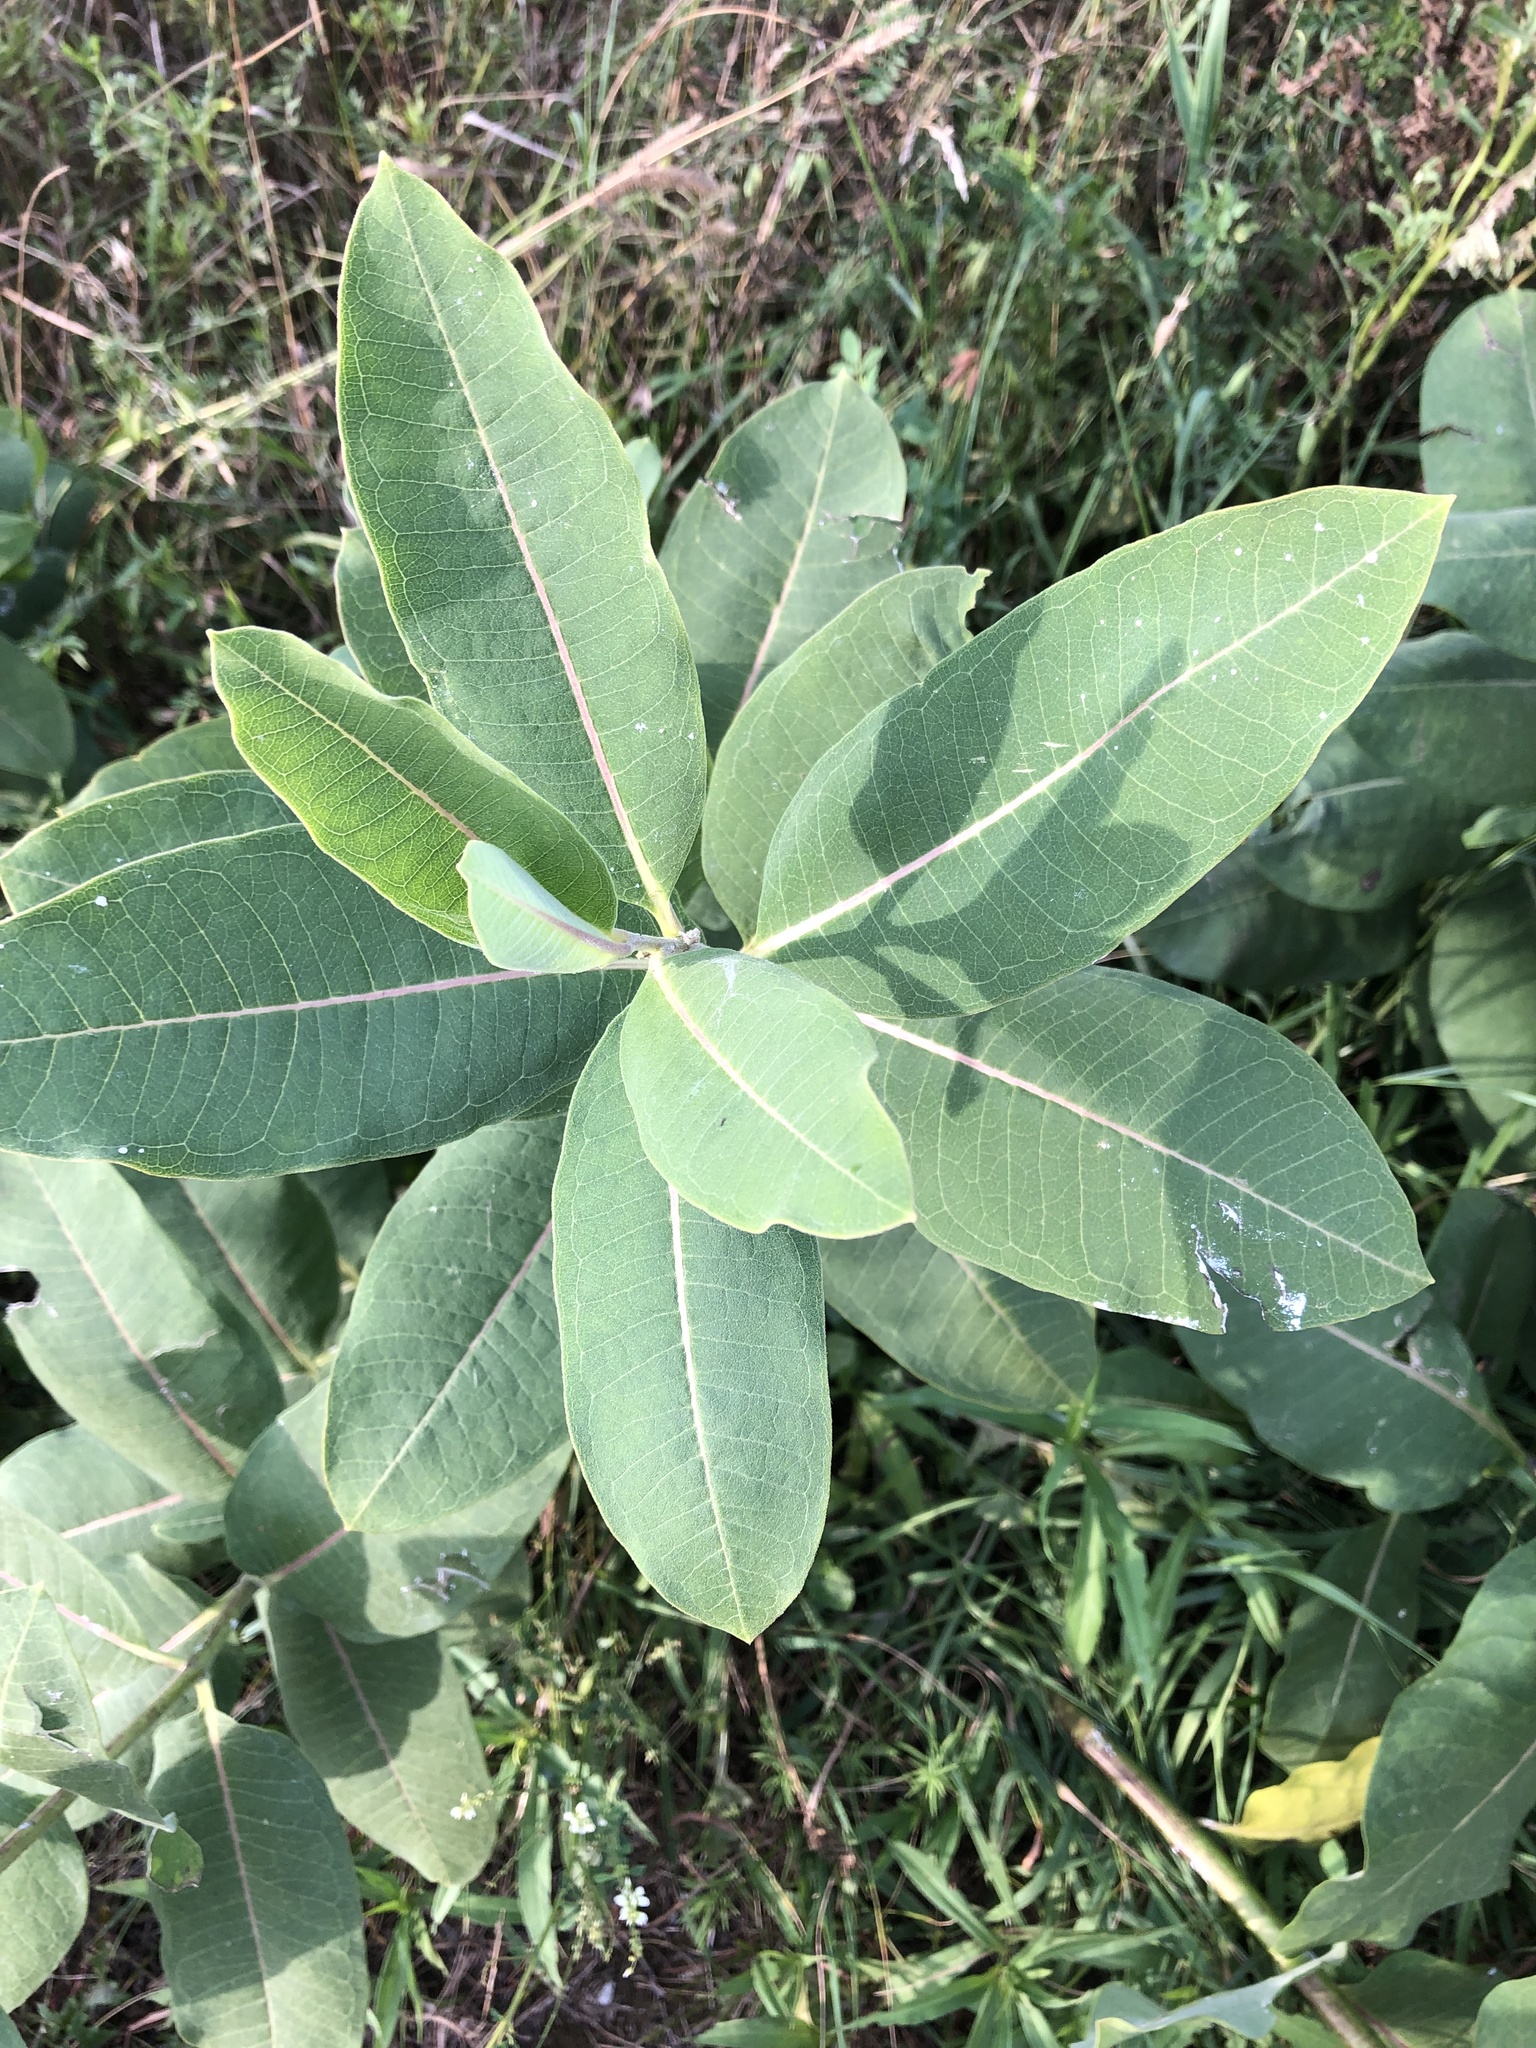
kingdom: Plantae
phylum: Tracheophyta
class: Magnoliopsida
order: Gentianales
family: Apocynaceae
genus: Asclepias
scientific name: Asclepias syriaca
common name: Common milkweed
